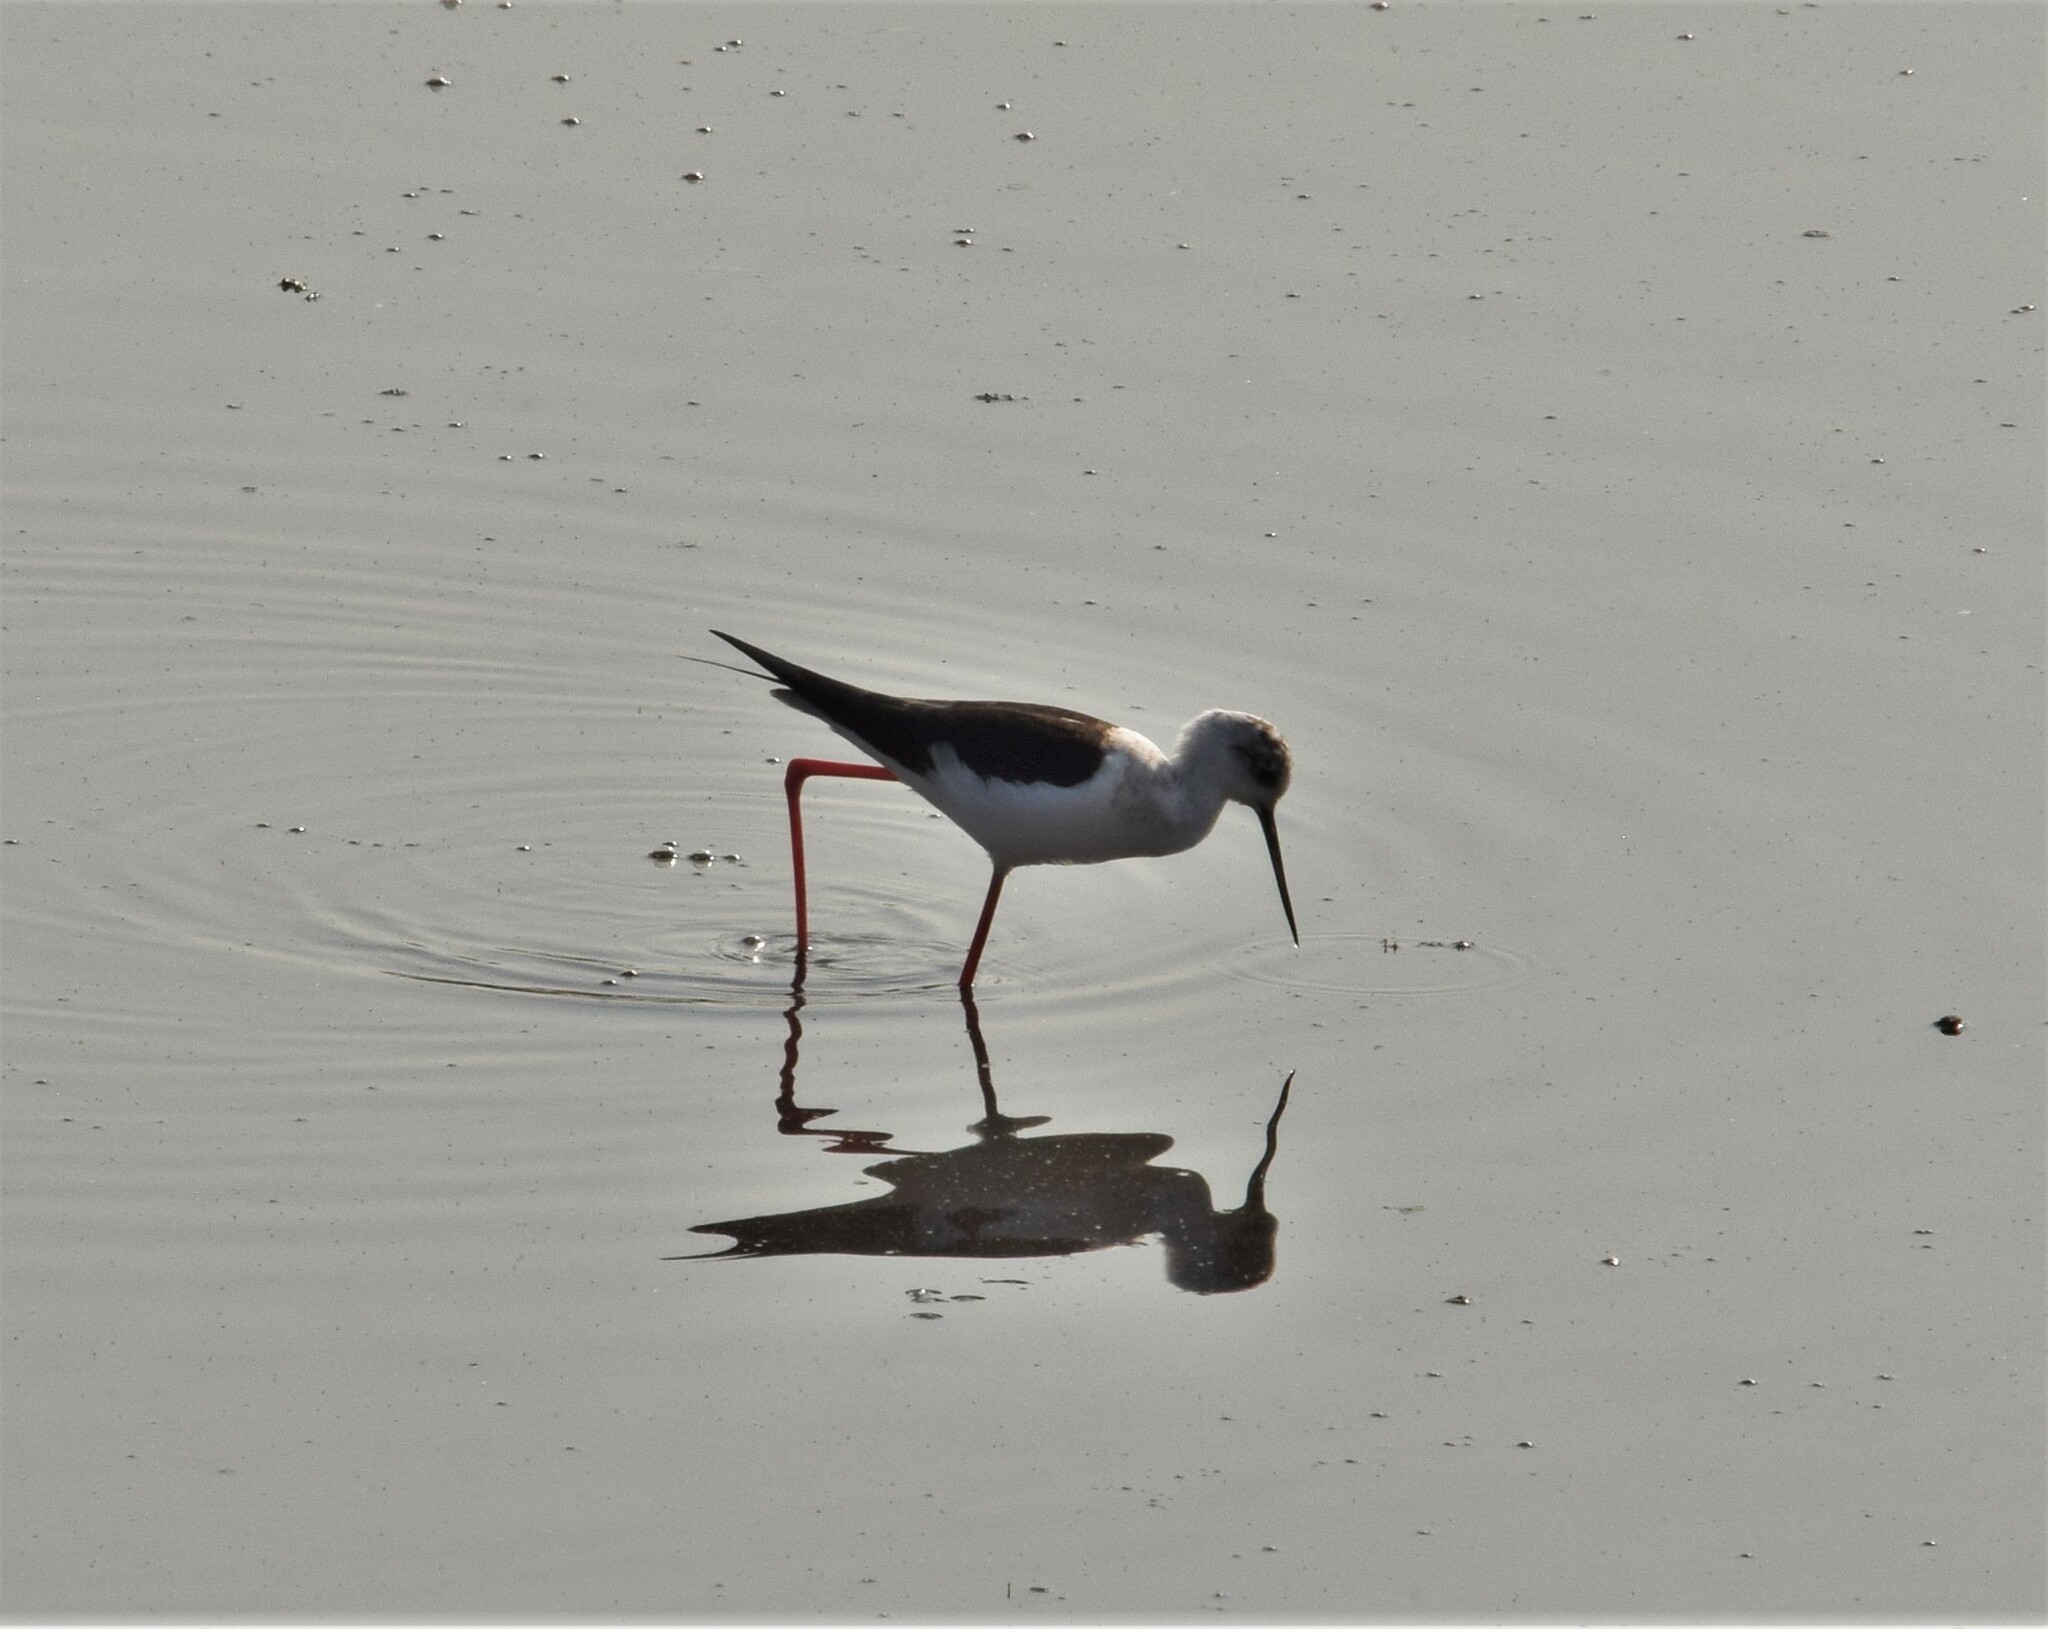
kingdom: Animalia
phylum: Chordata
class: Aves
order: Charadriiformes
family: Recurvirostridae
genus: Himantopus
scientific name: Himantopus himantopus
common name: Black-winged stilt
